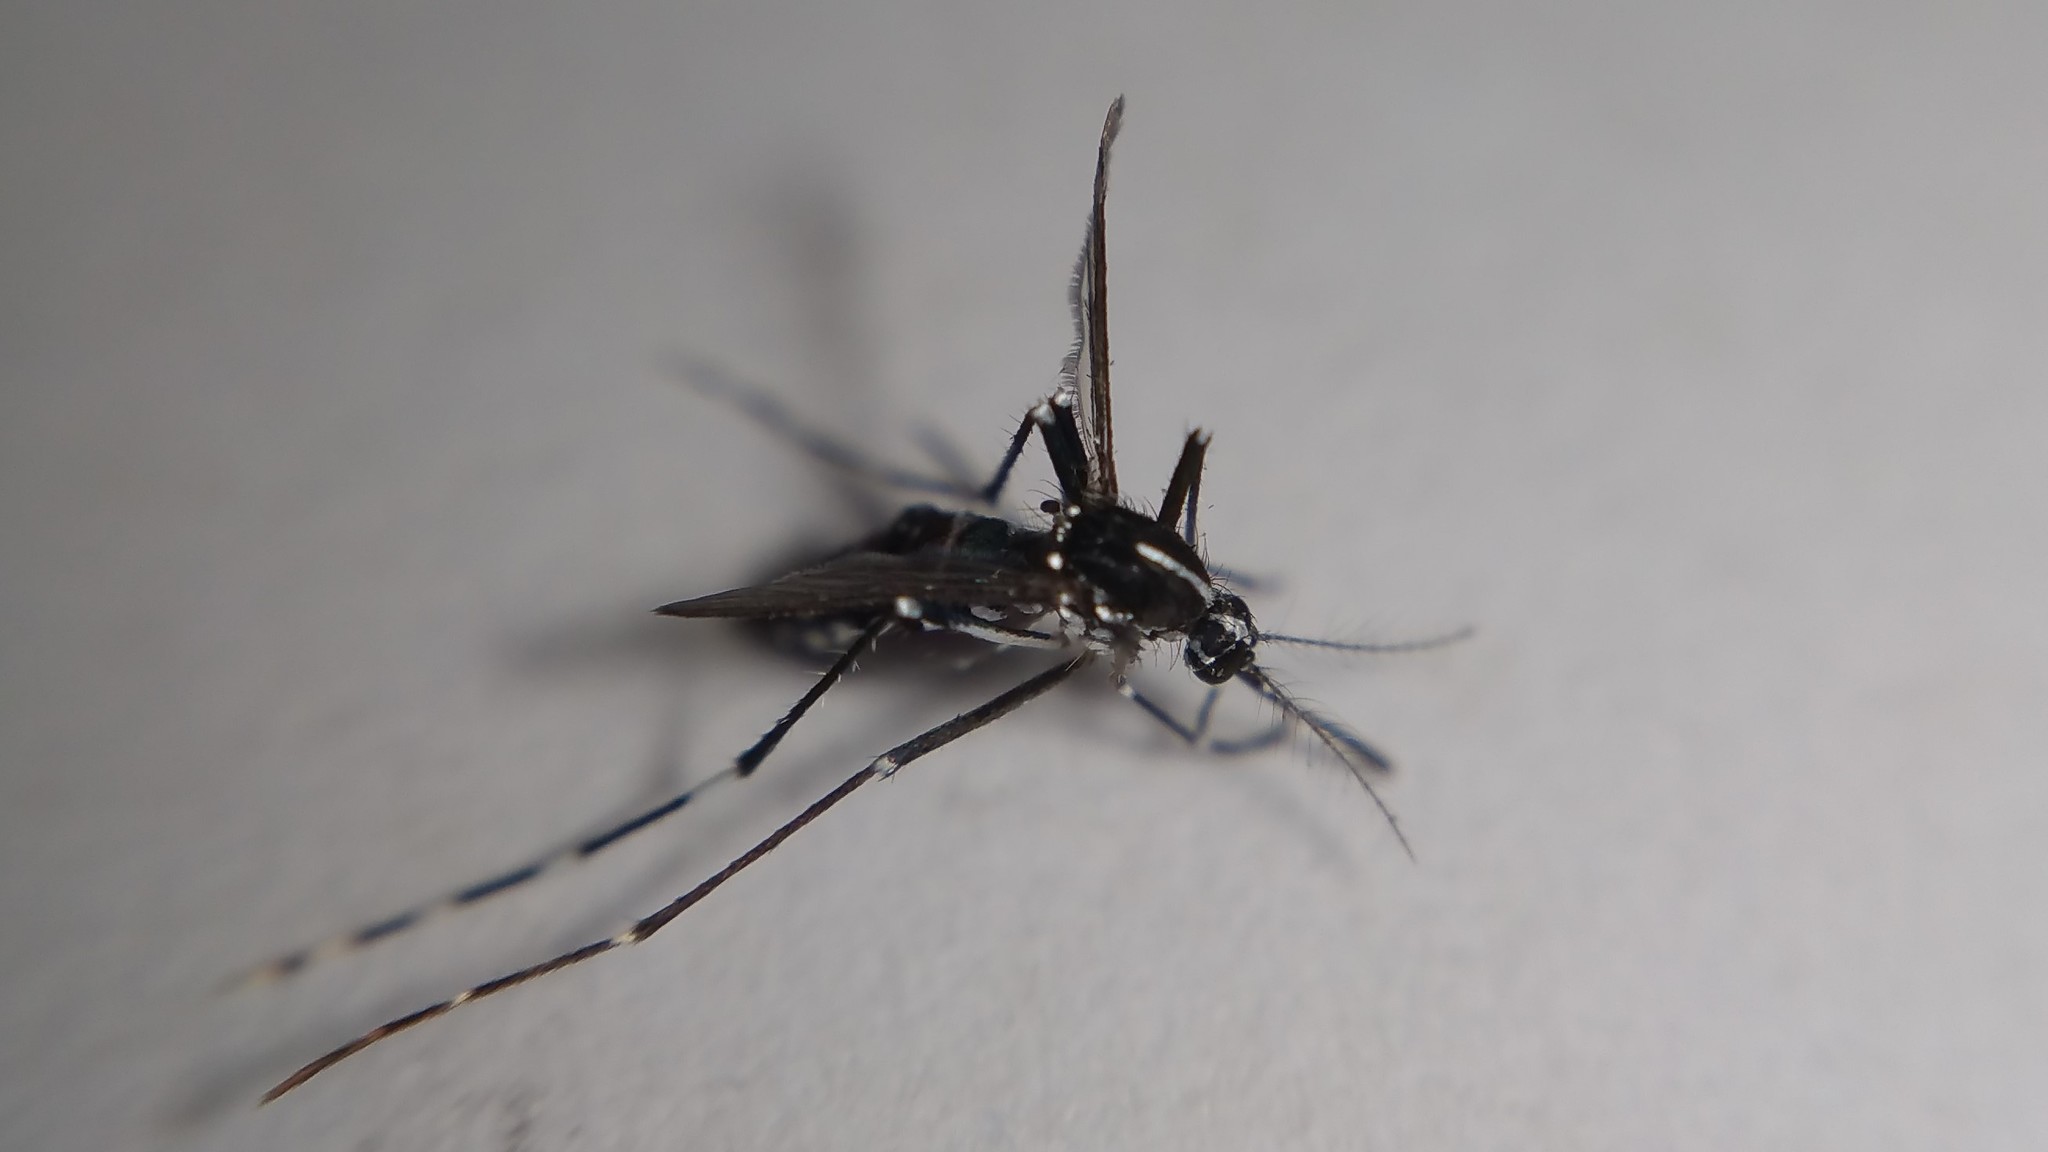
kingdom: Animalia
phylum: Arthropoda
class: Insecta
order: Diptera
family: Culicidae
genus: Aedes
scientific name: Aedes albopictus
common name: Tiger mosquito
